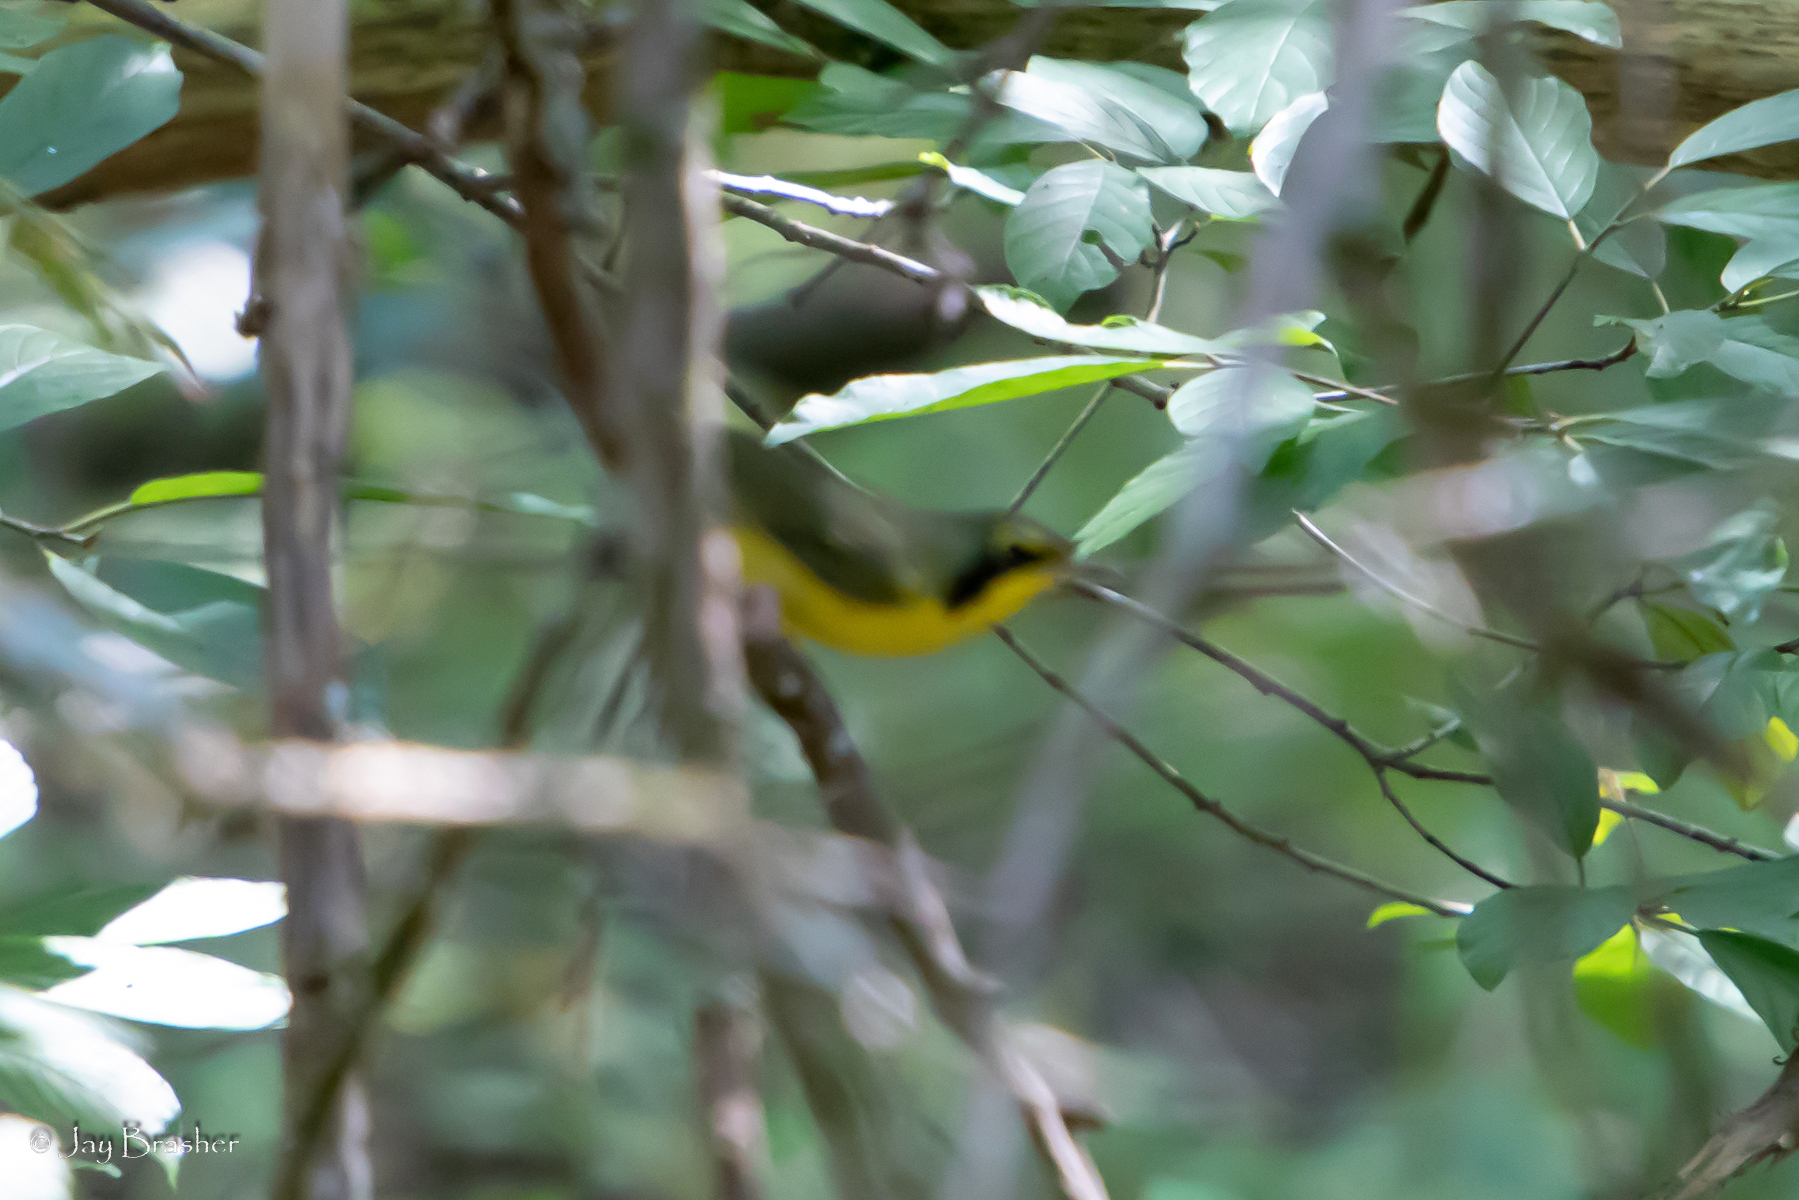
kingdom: Animalia
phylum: Chordata
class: Aves
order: Passeriformes
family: Parulidae
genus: Geothlypis
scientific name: Geothlypis formosa
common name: Kentucky warbler
